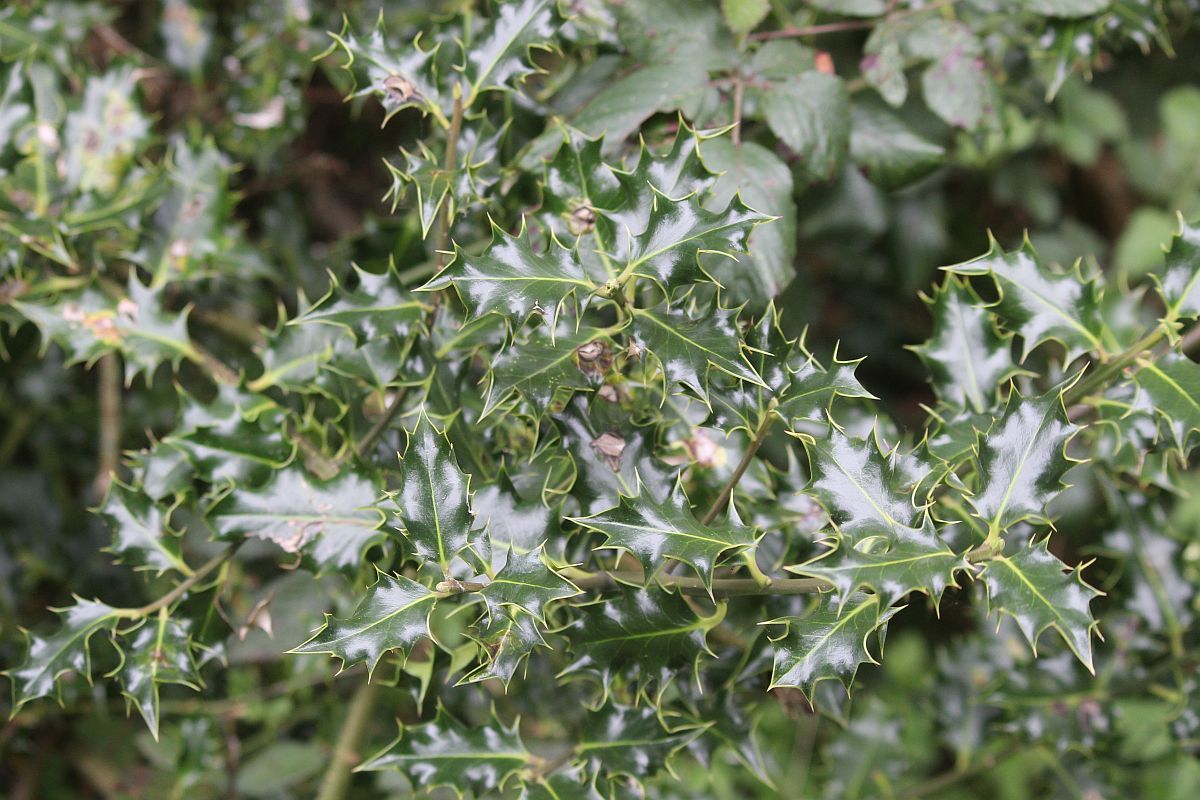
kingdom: Plantae
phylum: Tracheophyta
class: Magnoliopsida
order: Aquifoliales
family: Aquifoliaceae
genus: Ilex
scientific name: Ilex aquifolium
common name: English holly
